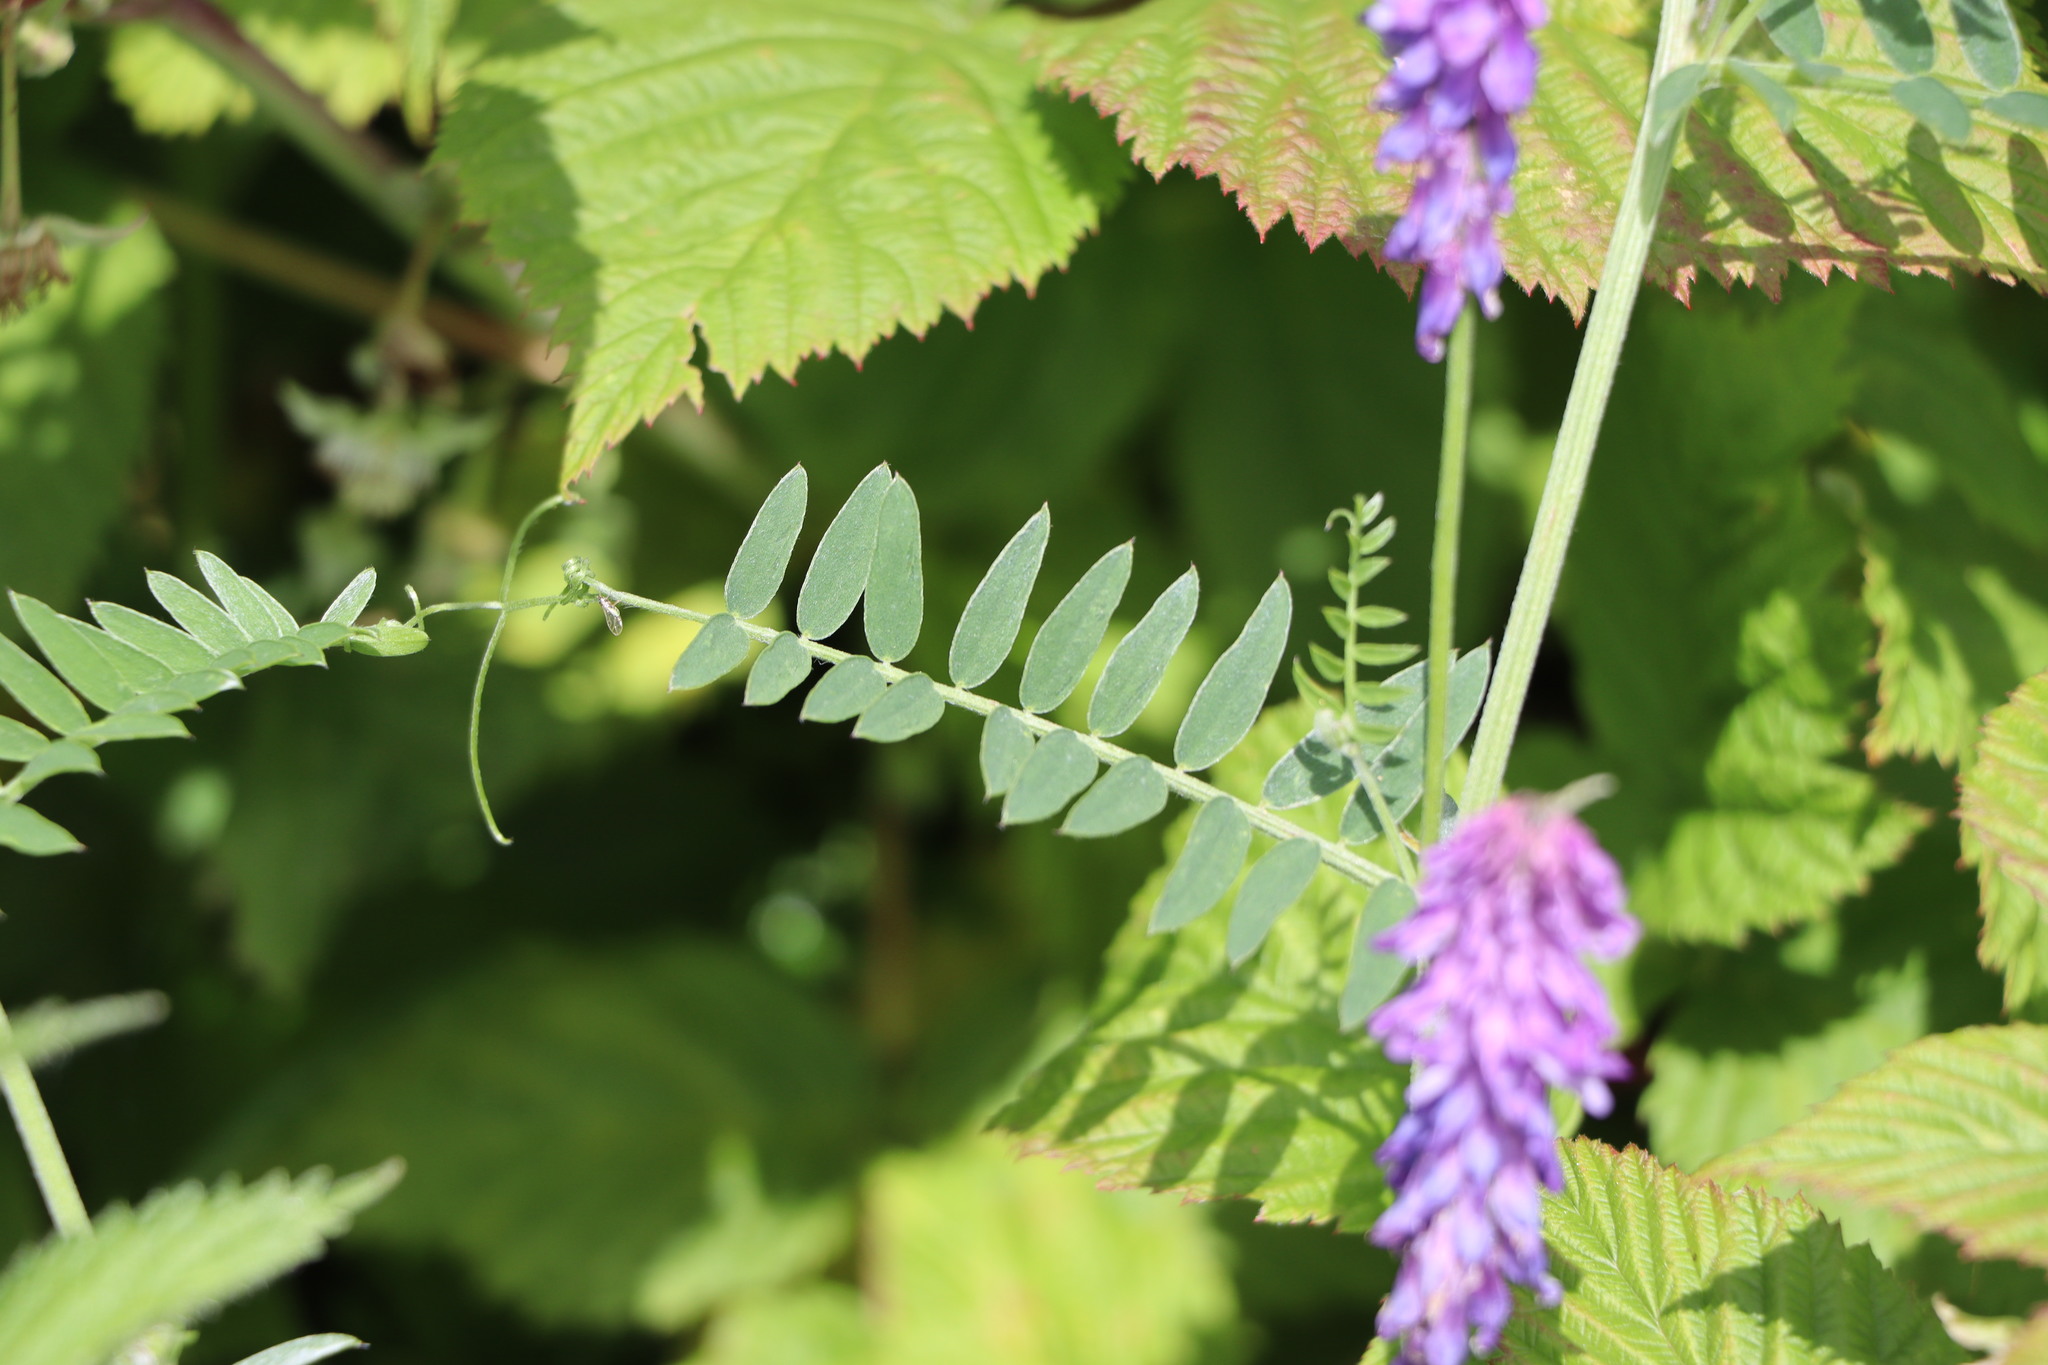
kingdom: Plantae
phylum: Tracheophyta
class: Magnoliopsida
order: Fabales
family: Fabaceae
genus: Vicia
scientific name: Vicia cracca
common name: Bird vetch
